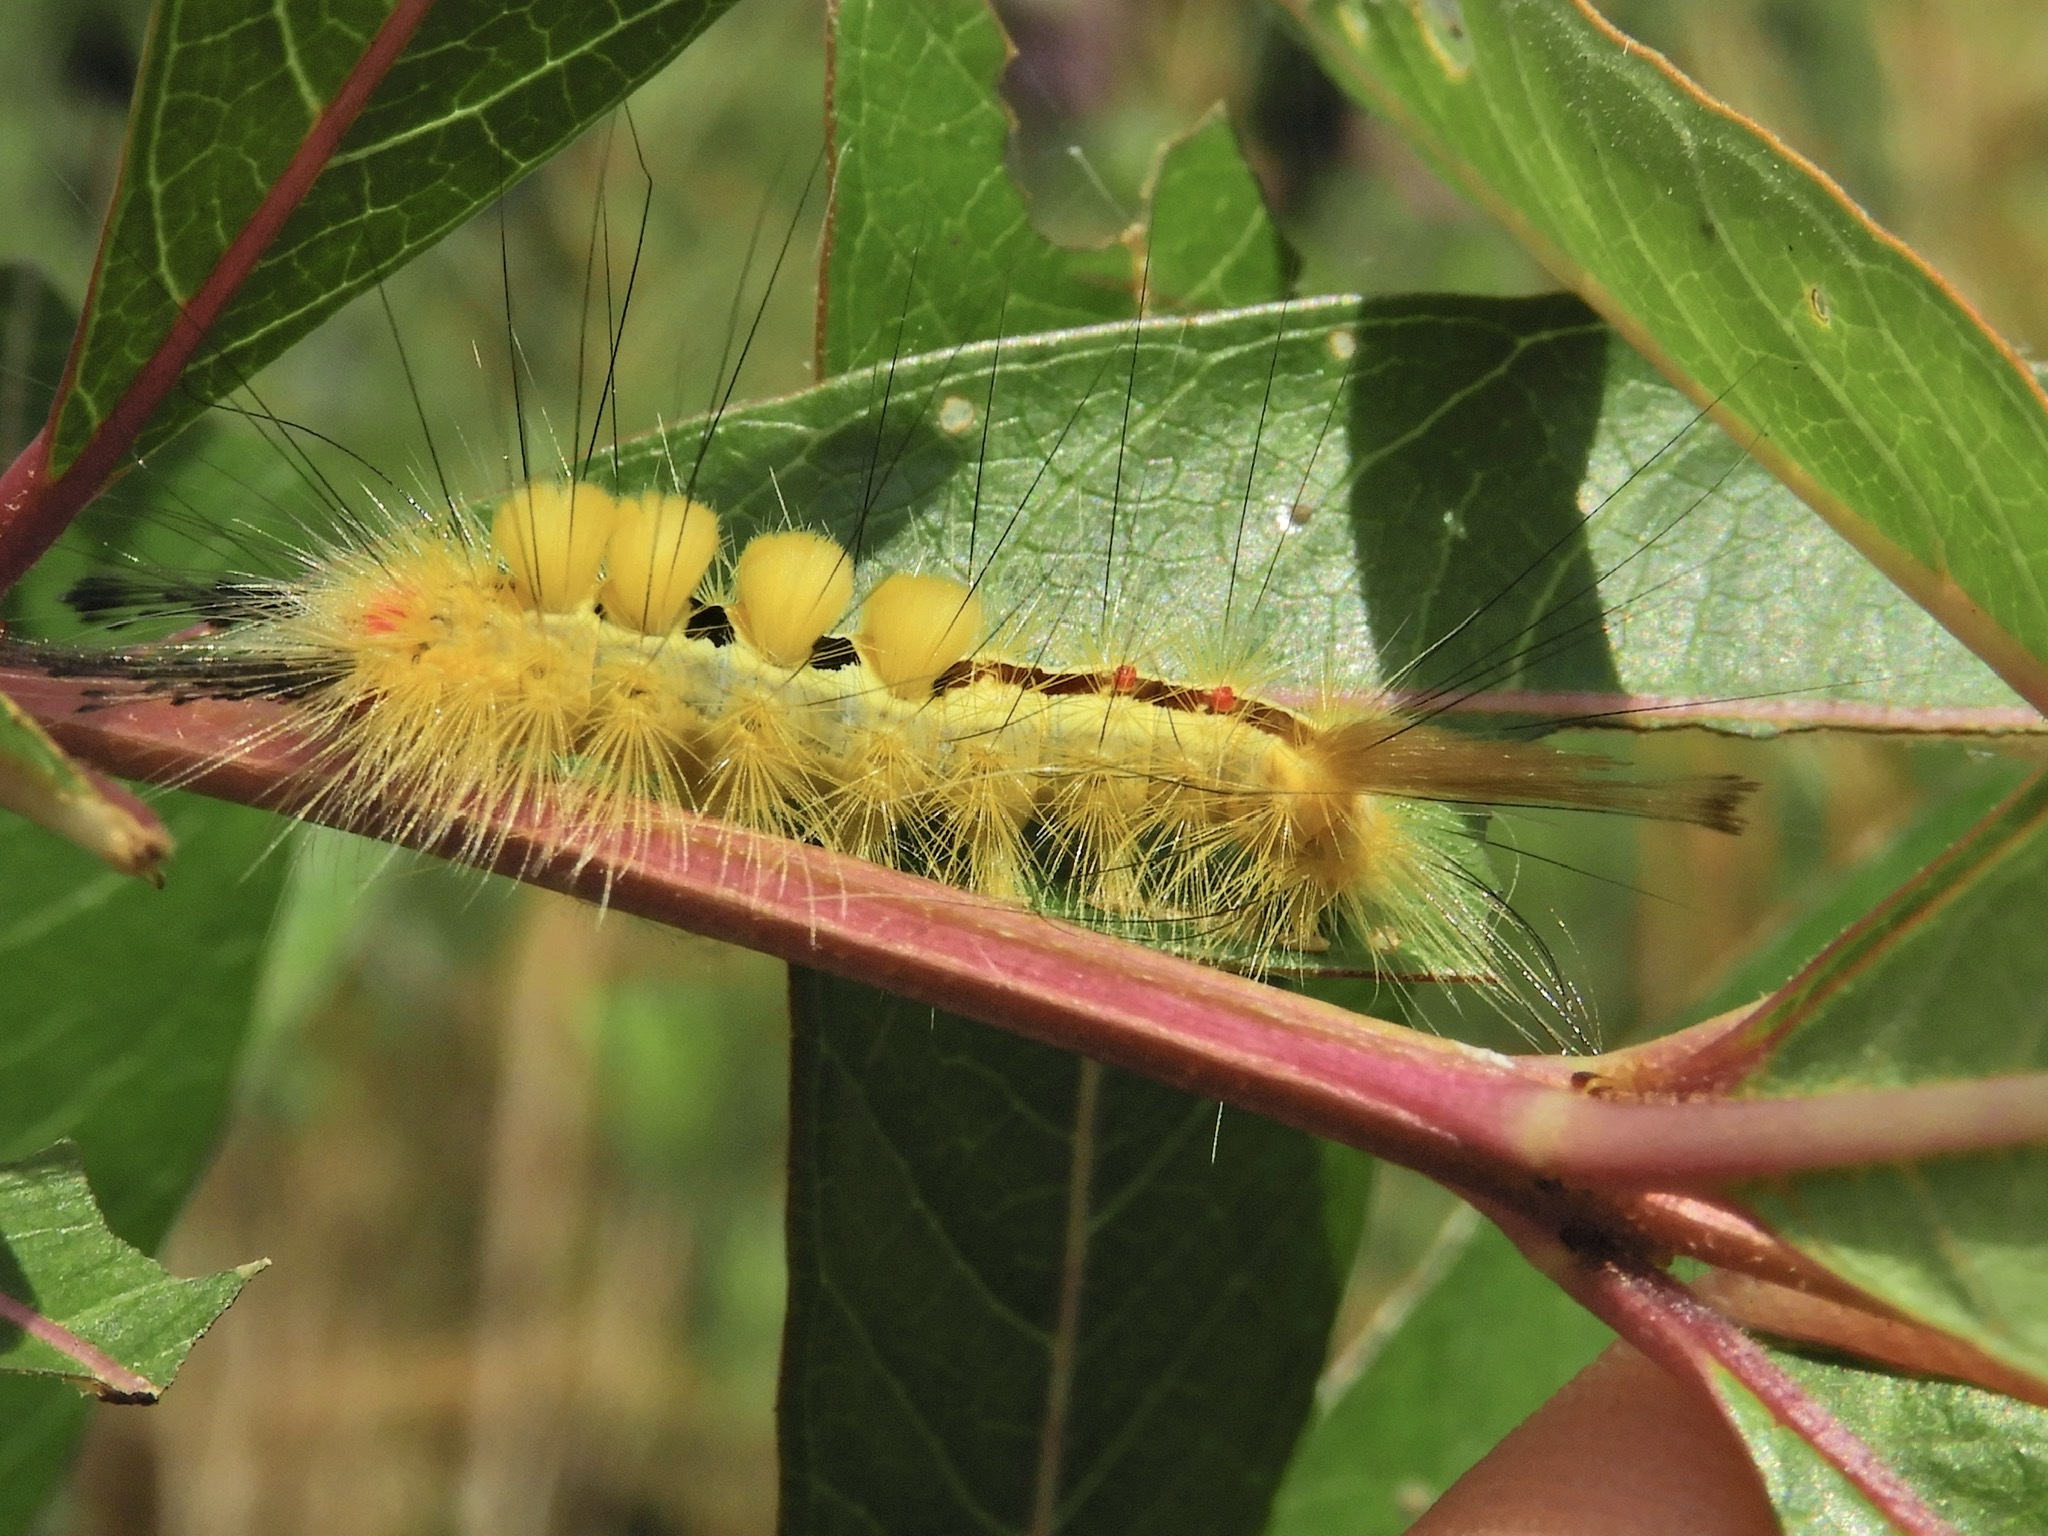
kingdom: Animalia
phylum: Arthropoda
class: Insecta
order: Lepidoptera
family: Erebidae
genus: Orgyia
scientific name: Orgyia leucostigma
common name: White-marked tussock moth
